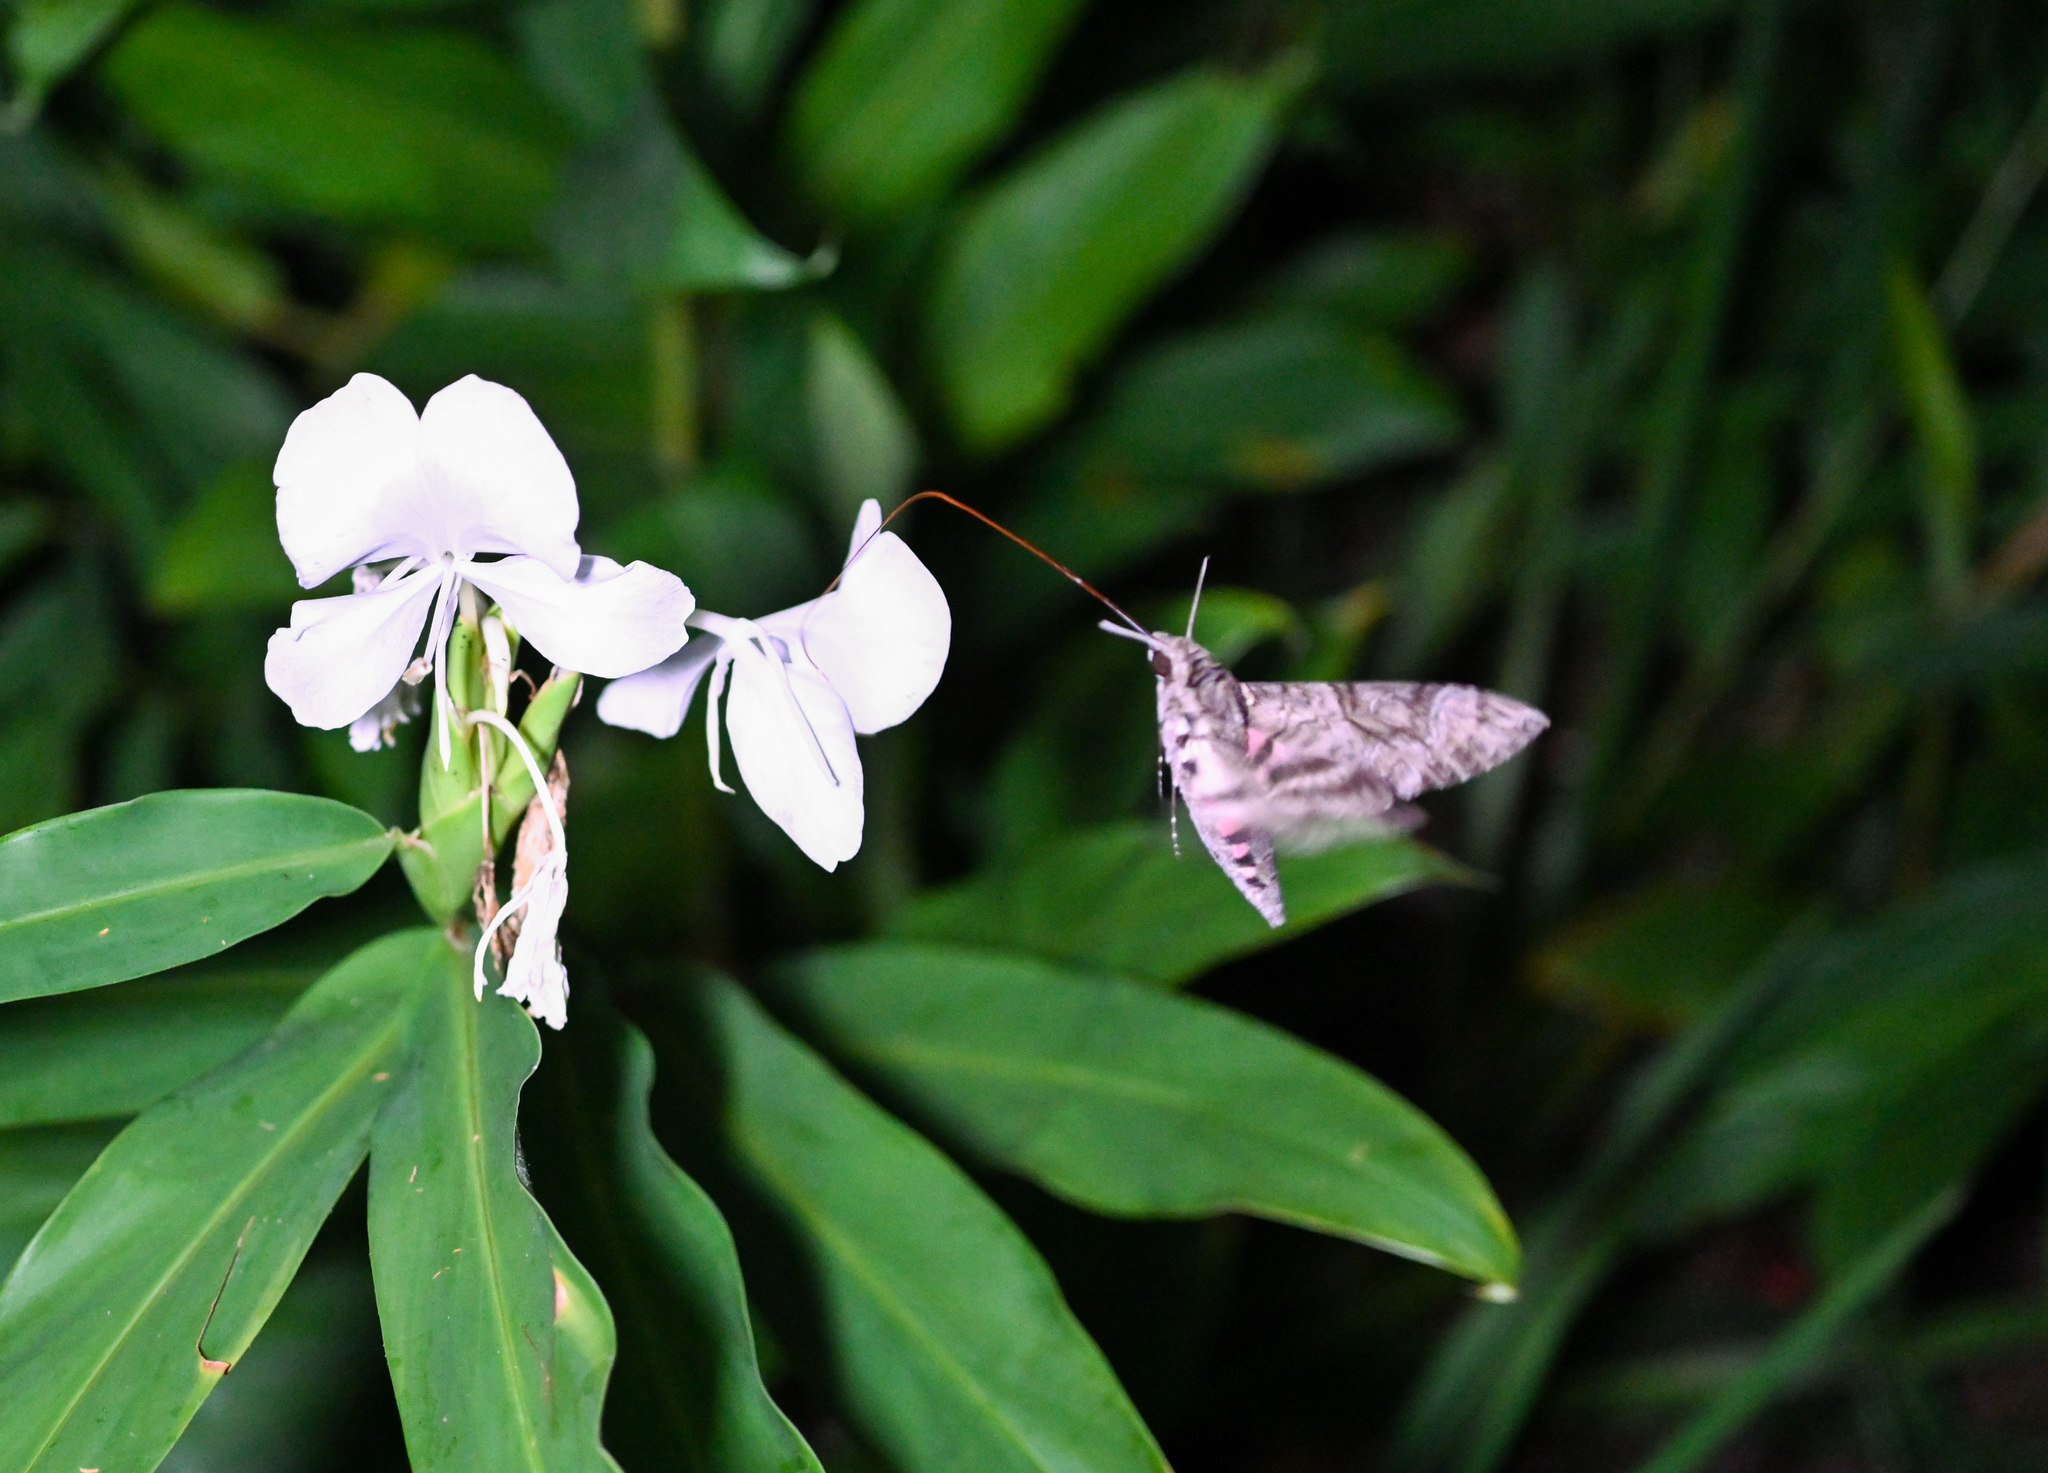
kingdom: Animalia
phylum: Arthropoda
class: Insecta
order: Lepidoptera
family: Sphingidae
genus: Agrius
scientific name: Agrius cingulata
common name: Pink-spotted hawkmoth
